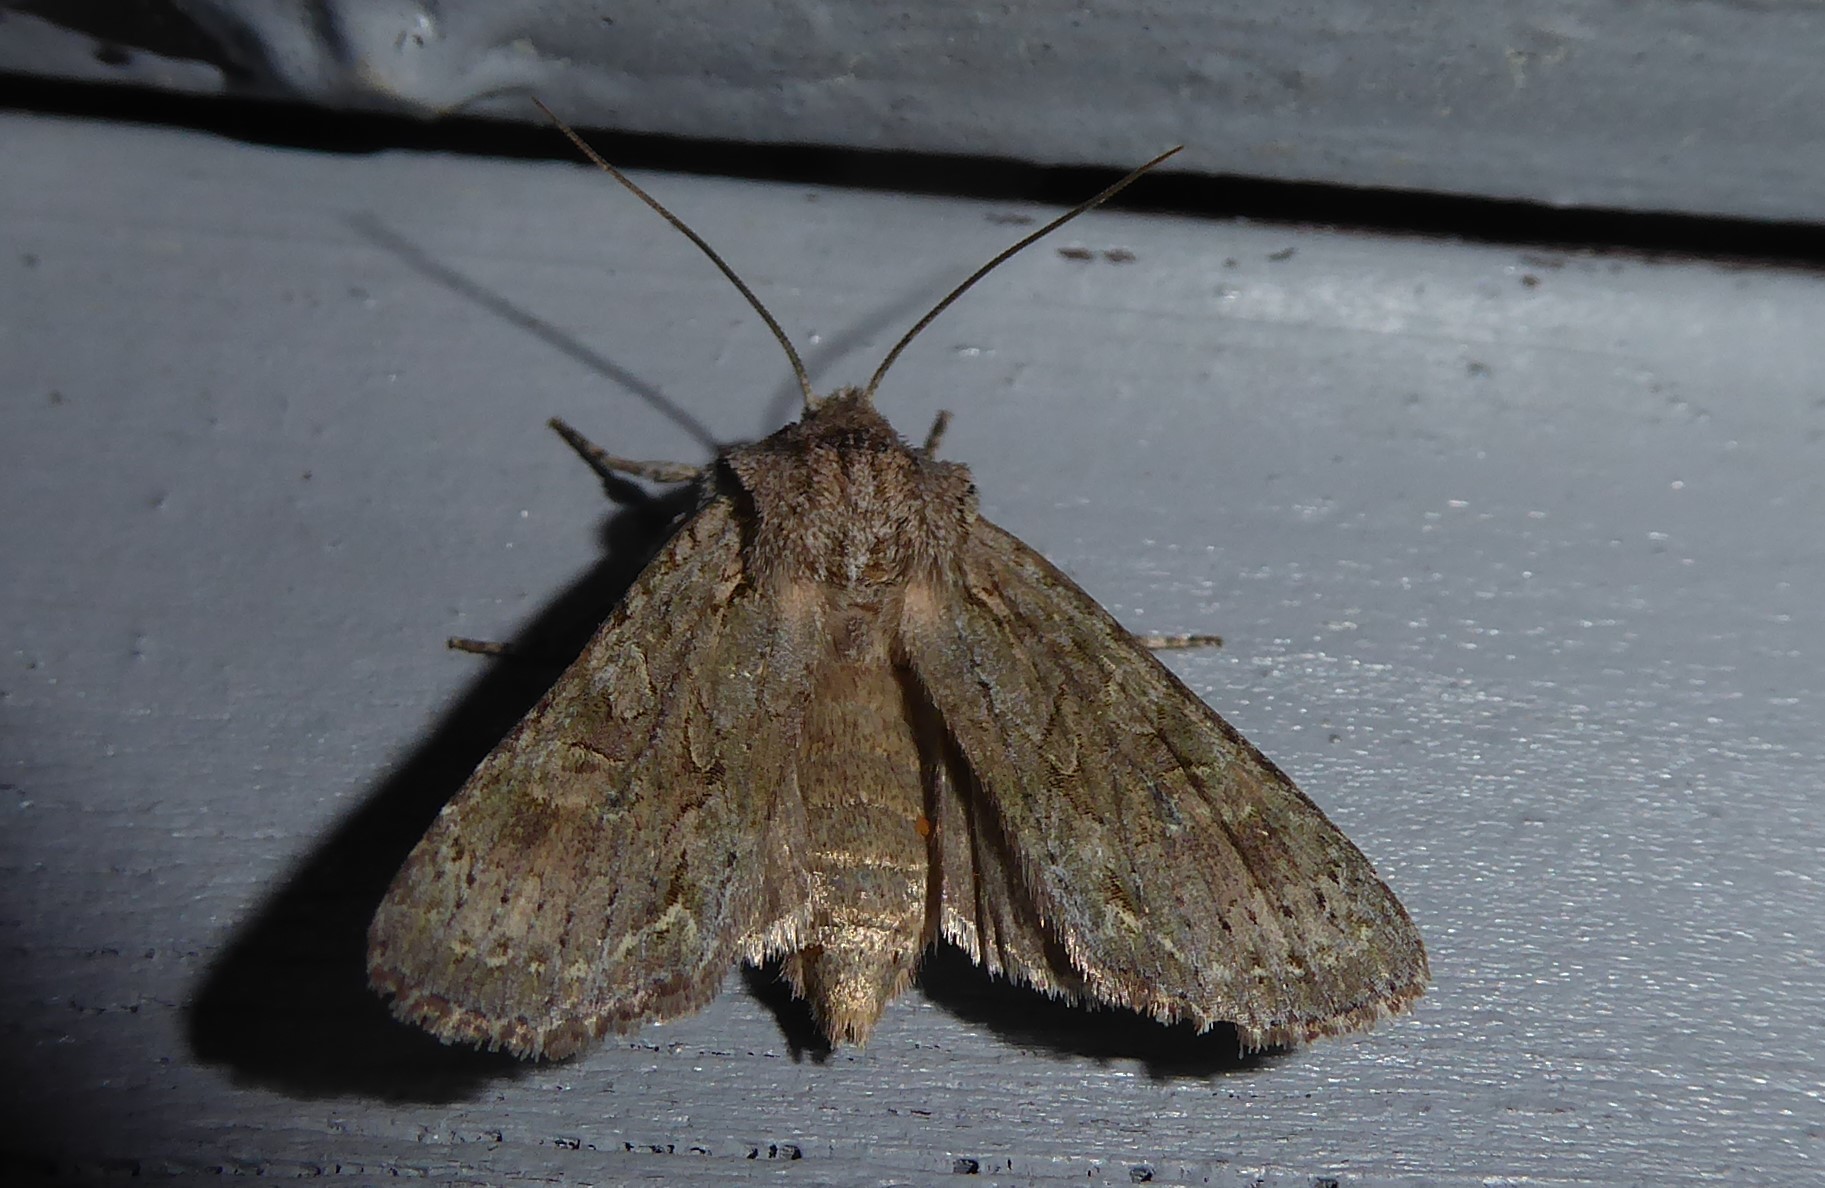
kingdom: Animalia
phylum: Arthropoda
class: Insecta
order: Lepidoptera
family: Noctuidae
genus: Ichneutica
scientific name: Ichneutica mutans
